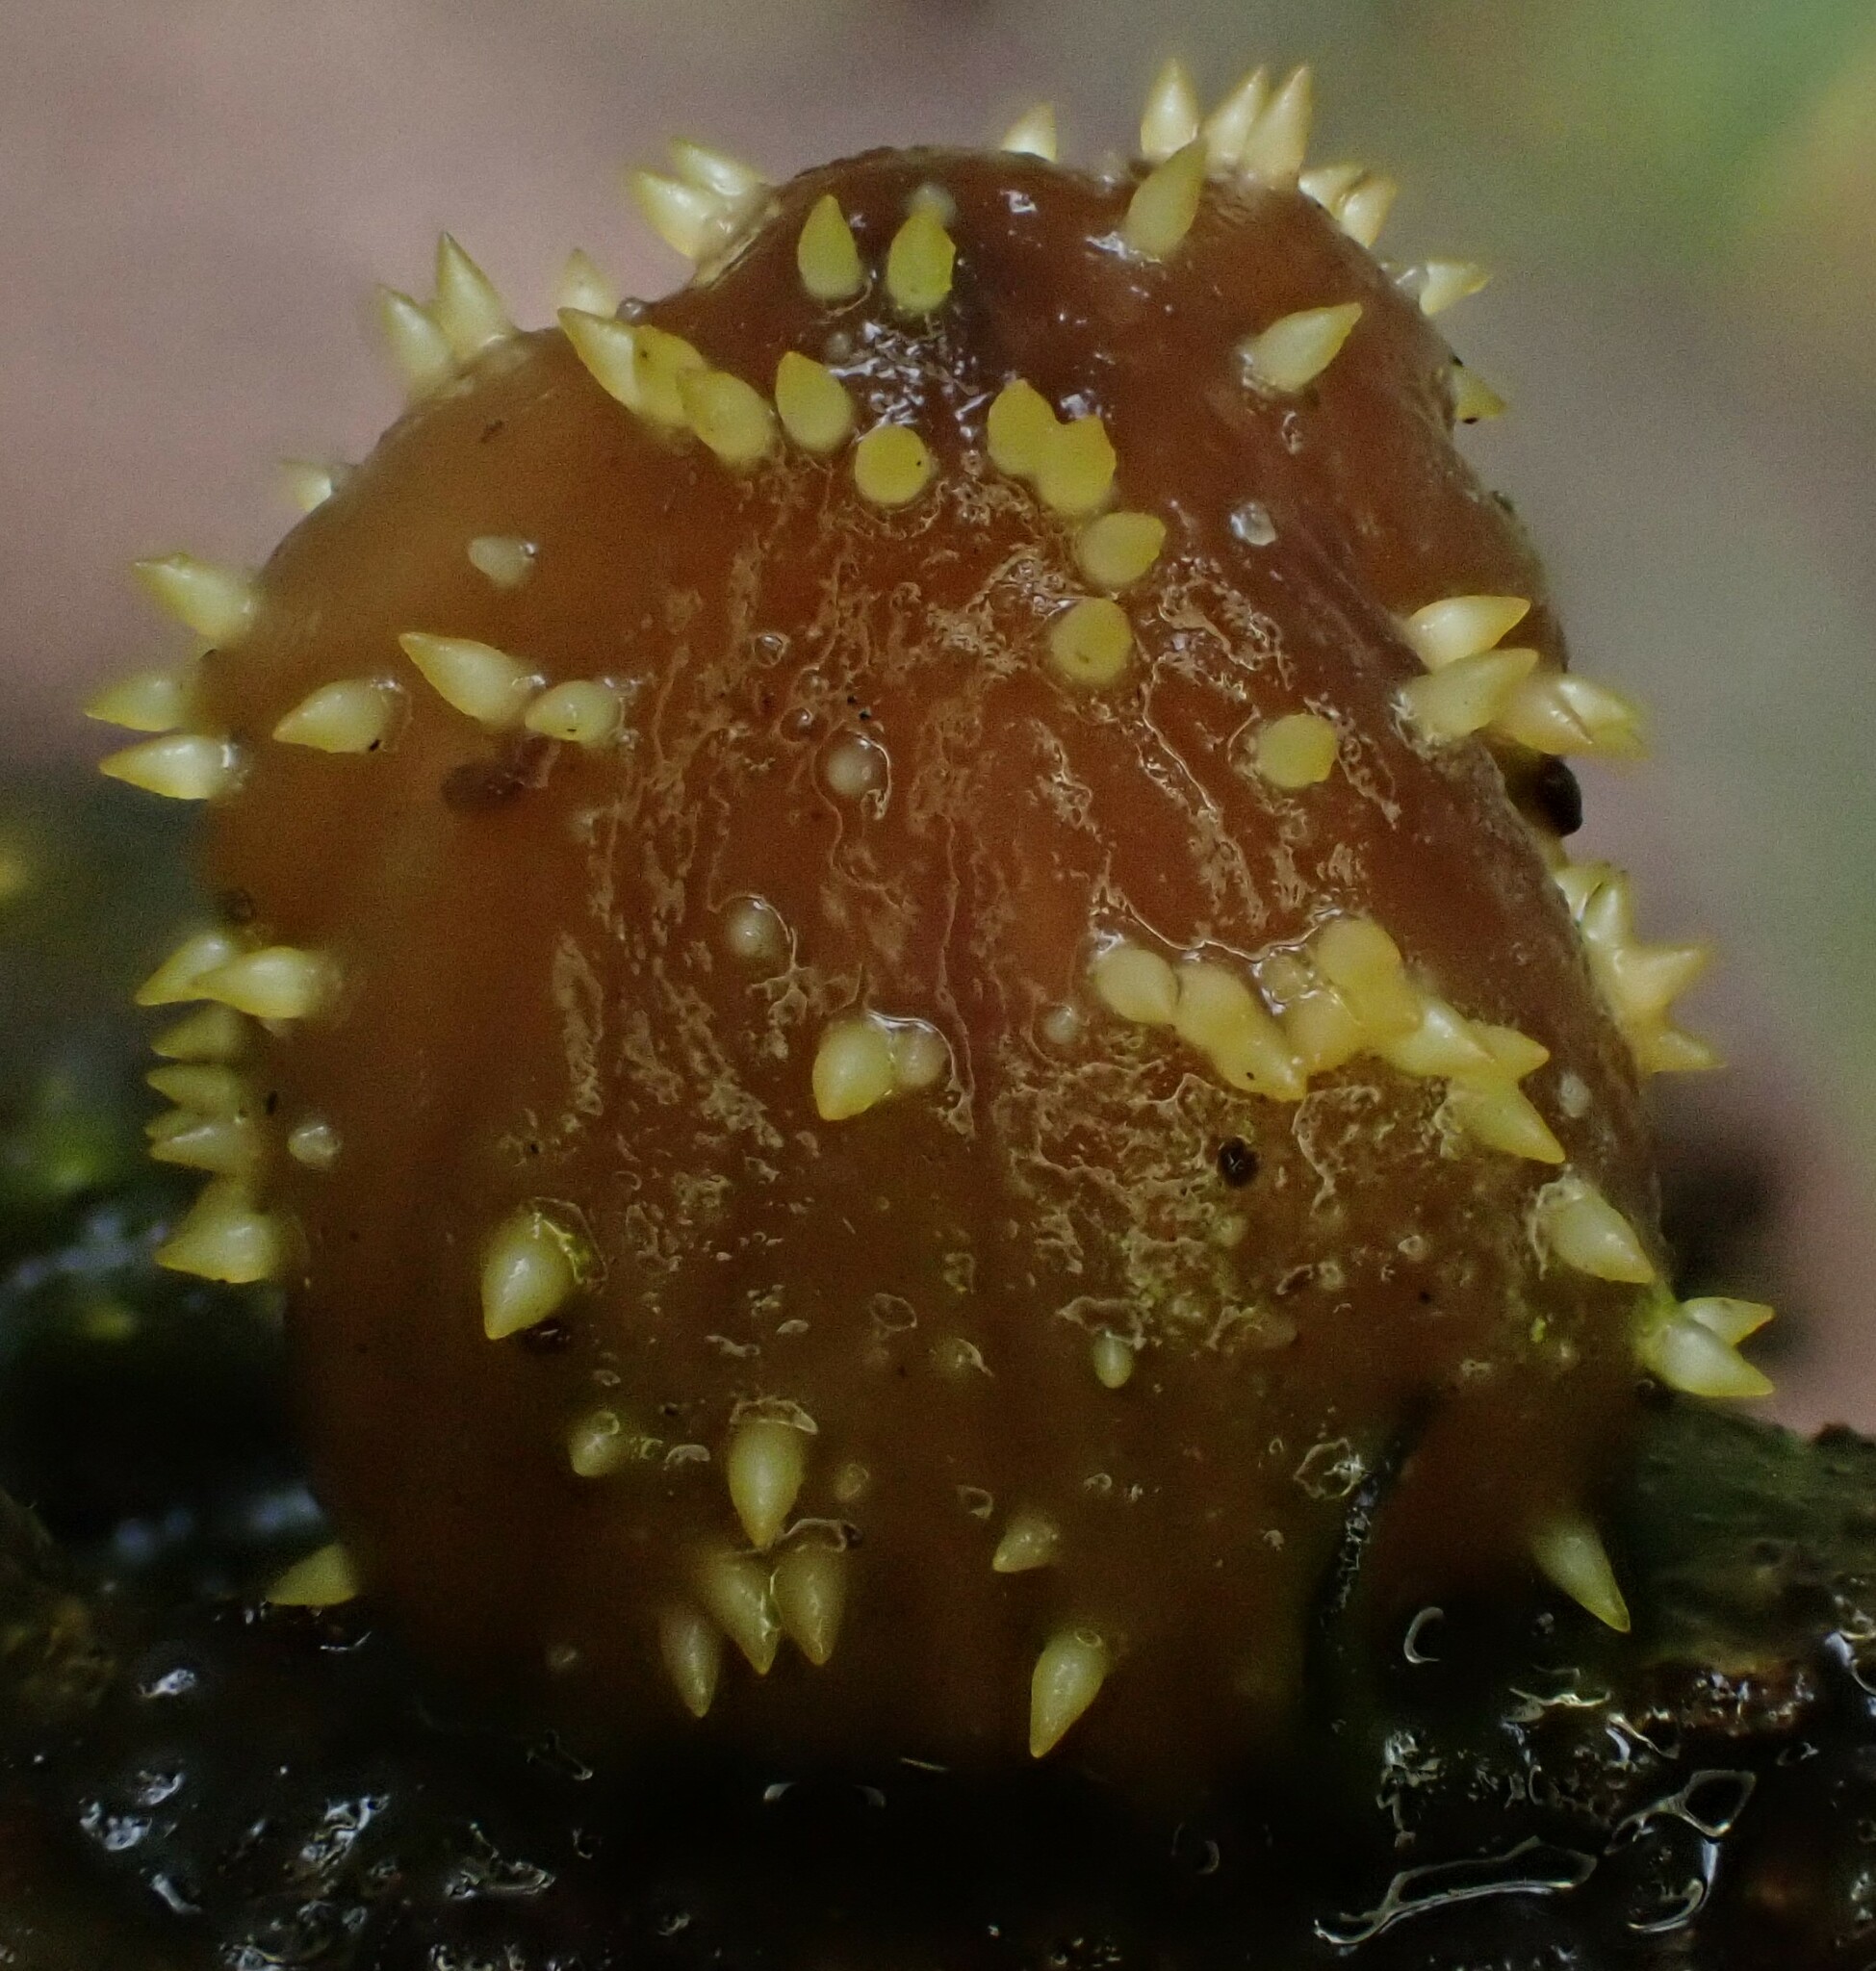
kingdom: Fungi
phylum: Ascomycota
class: Sordariomycetes
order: Hypocreales
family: Clavicipitaceae
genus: Neobarya
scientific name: Neobarya agaricicola
